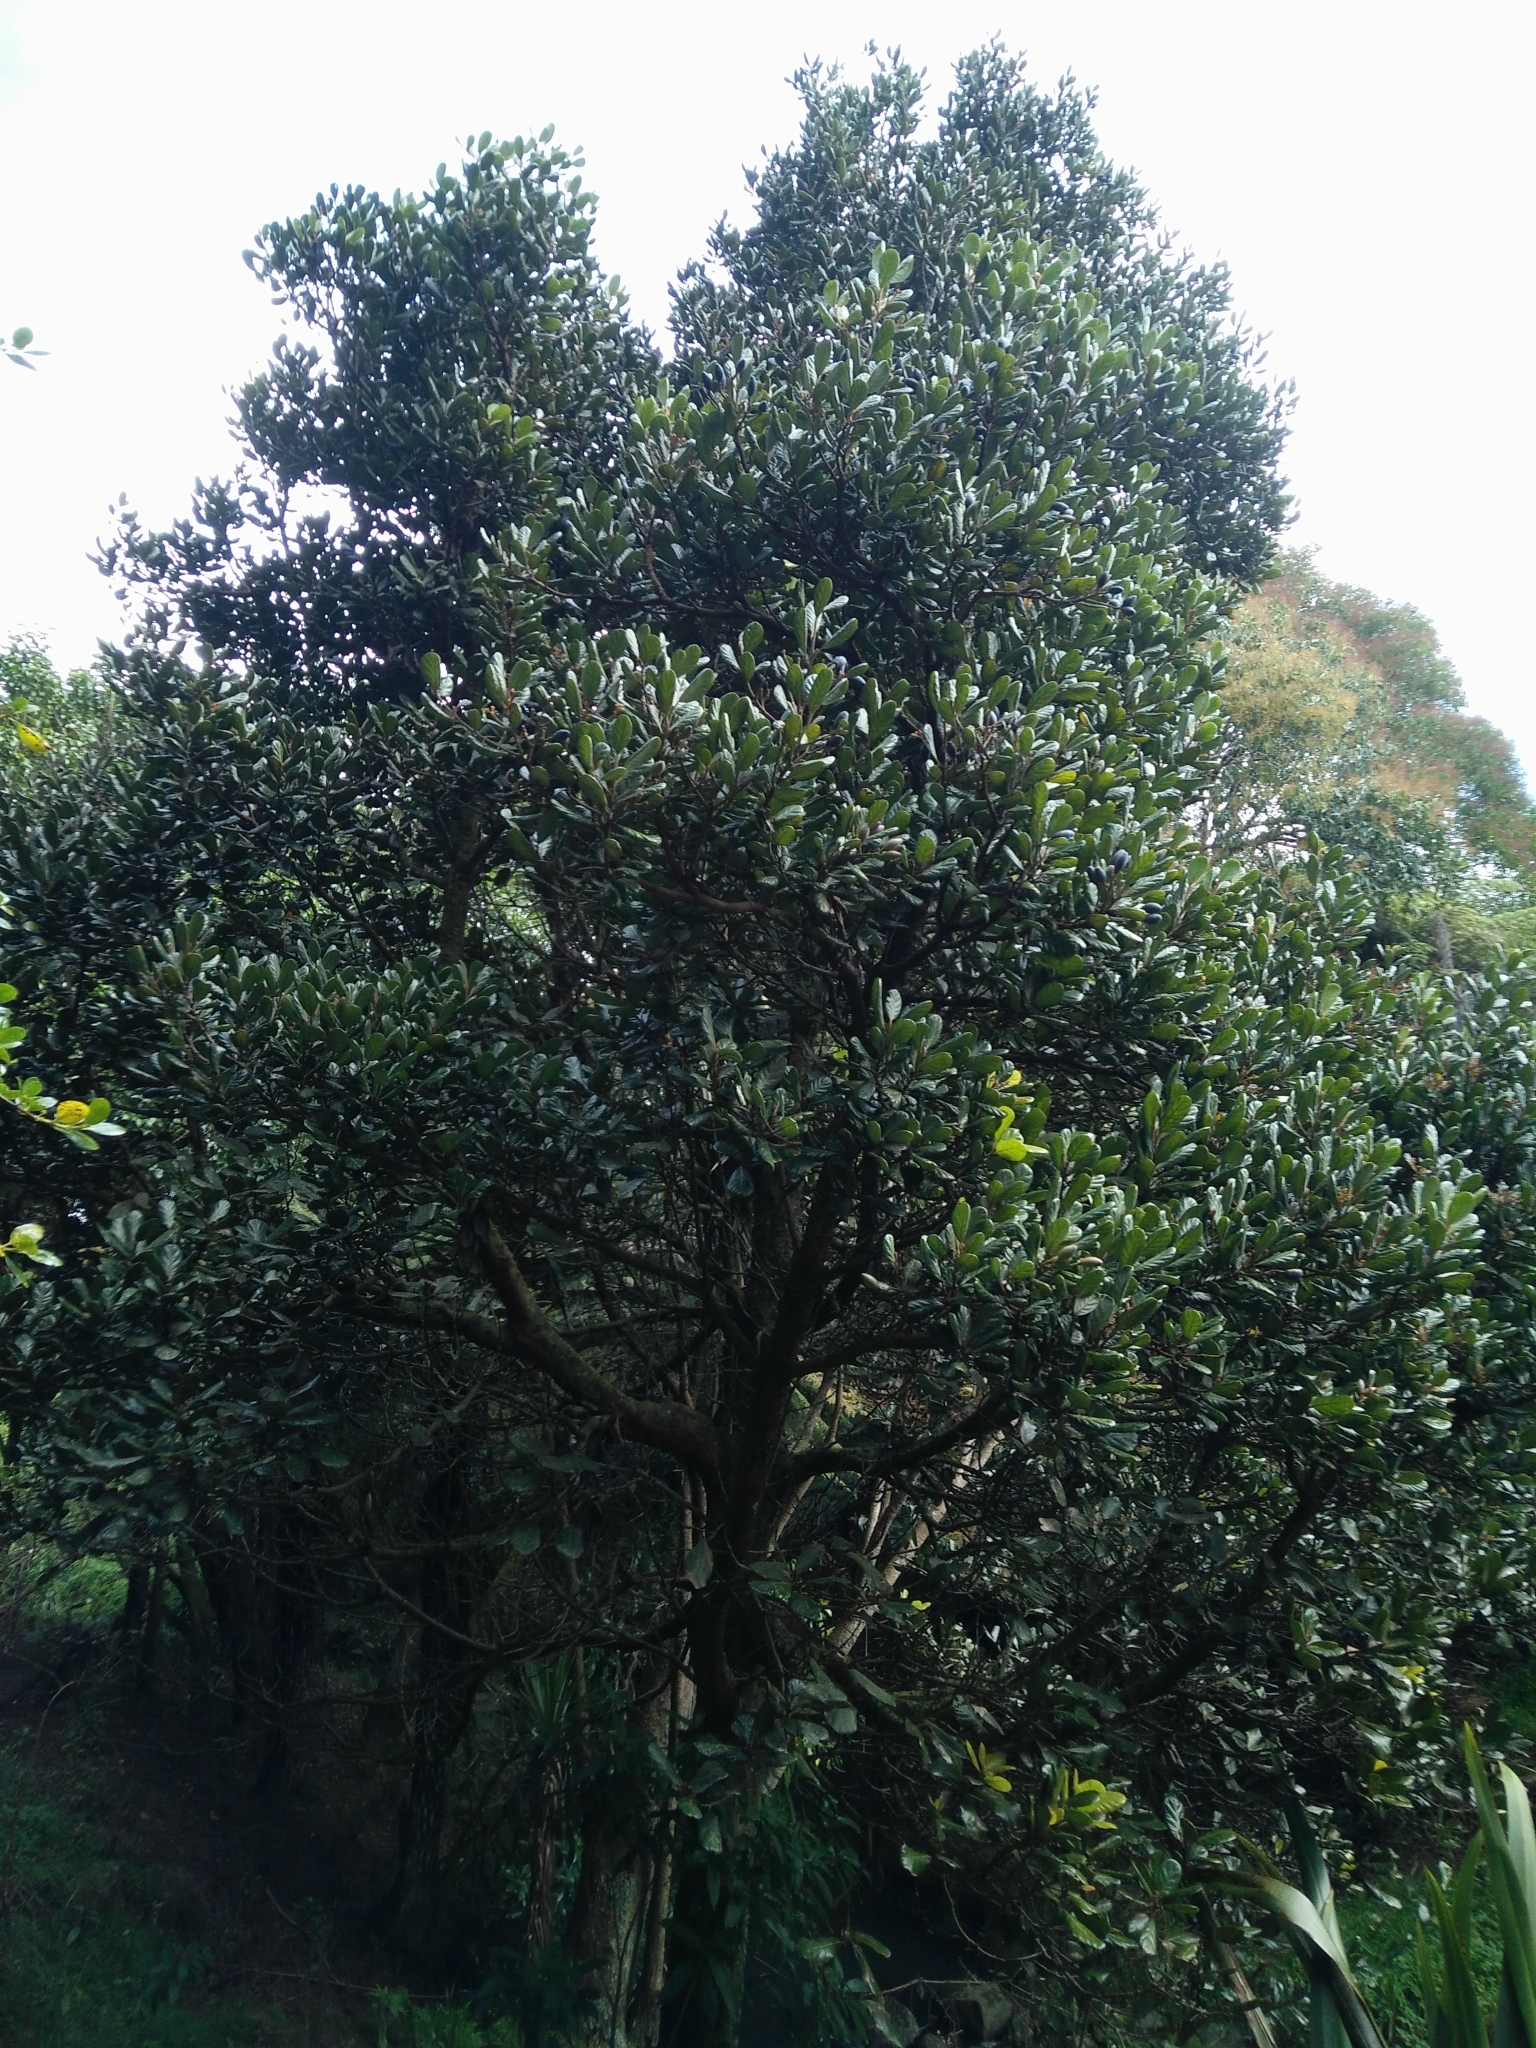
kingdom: Plantae
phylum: Tracheophyta
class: Magnoliopsida
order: Laurales
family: Lauraceae
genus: Beilschmiedia
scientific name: Beilschmiedia tarairi
